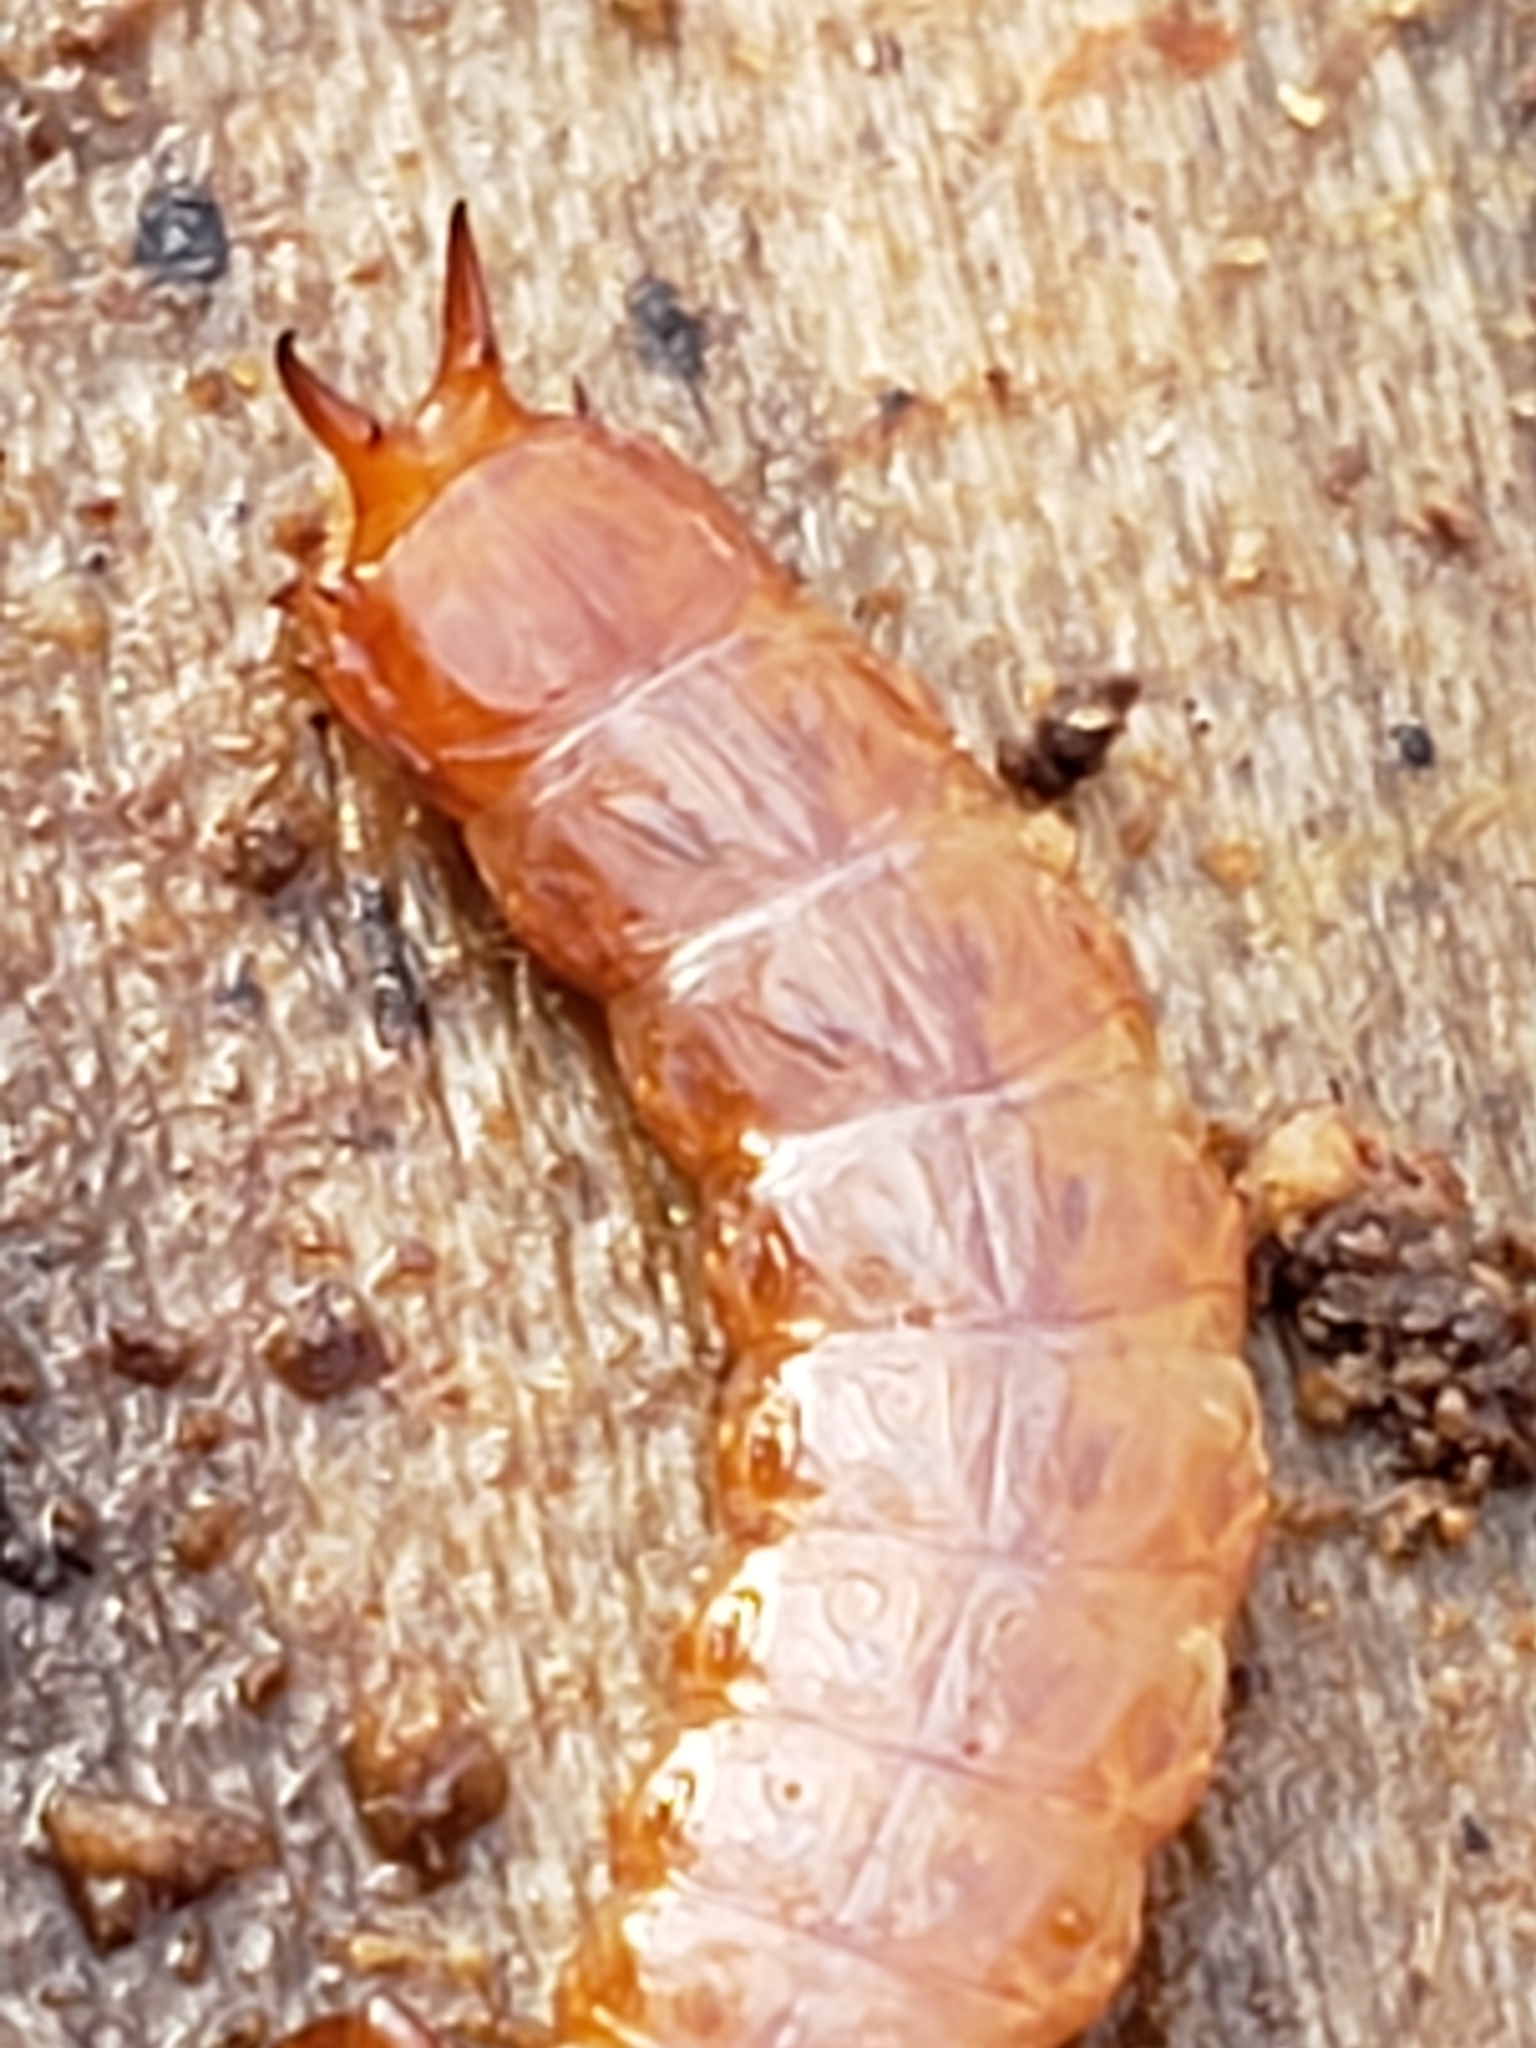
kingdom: Animalia
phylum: Arthropoda
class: Insecta
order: Coleoptera
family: Cucujidae
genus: Cucujus
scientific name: Cucujus clavipes
